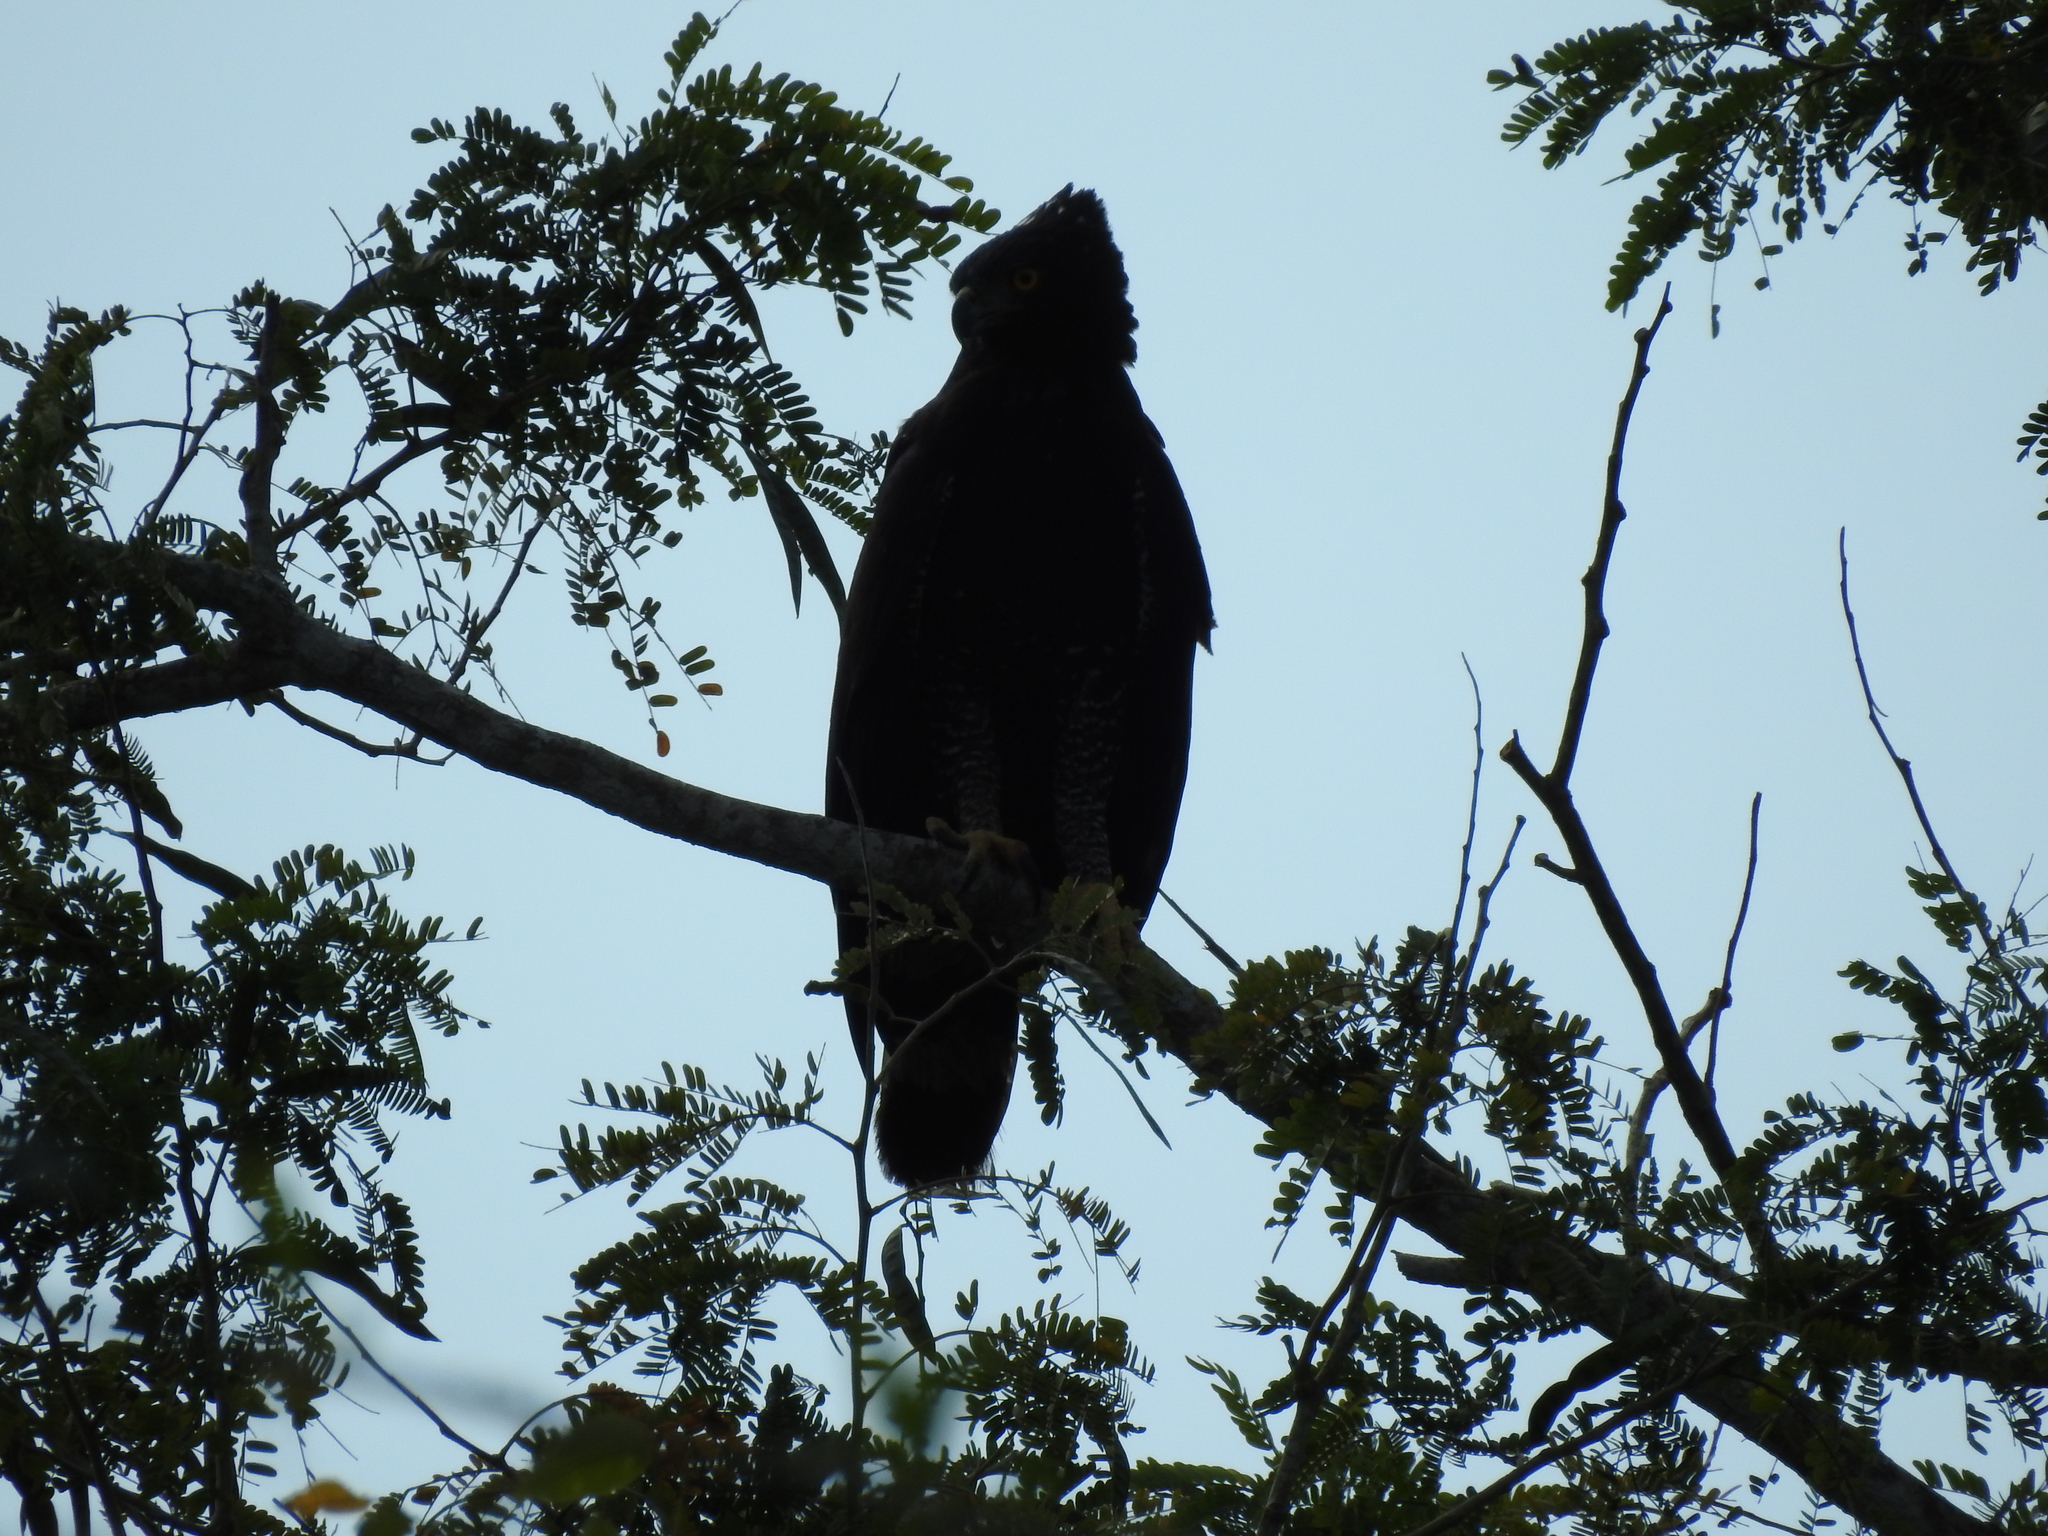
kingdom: Animalia
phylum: Chordata
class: Aves
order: Accipitriformes
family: Accipitridae
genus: Spizaetus
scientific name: Spizaetus tyrannus
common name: Black hawk-eagle
